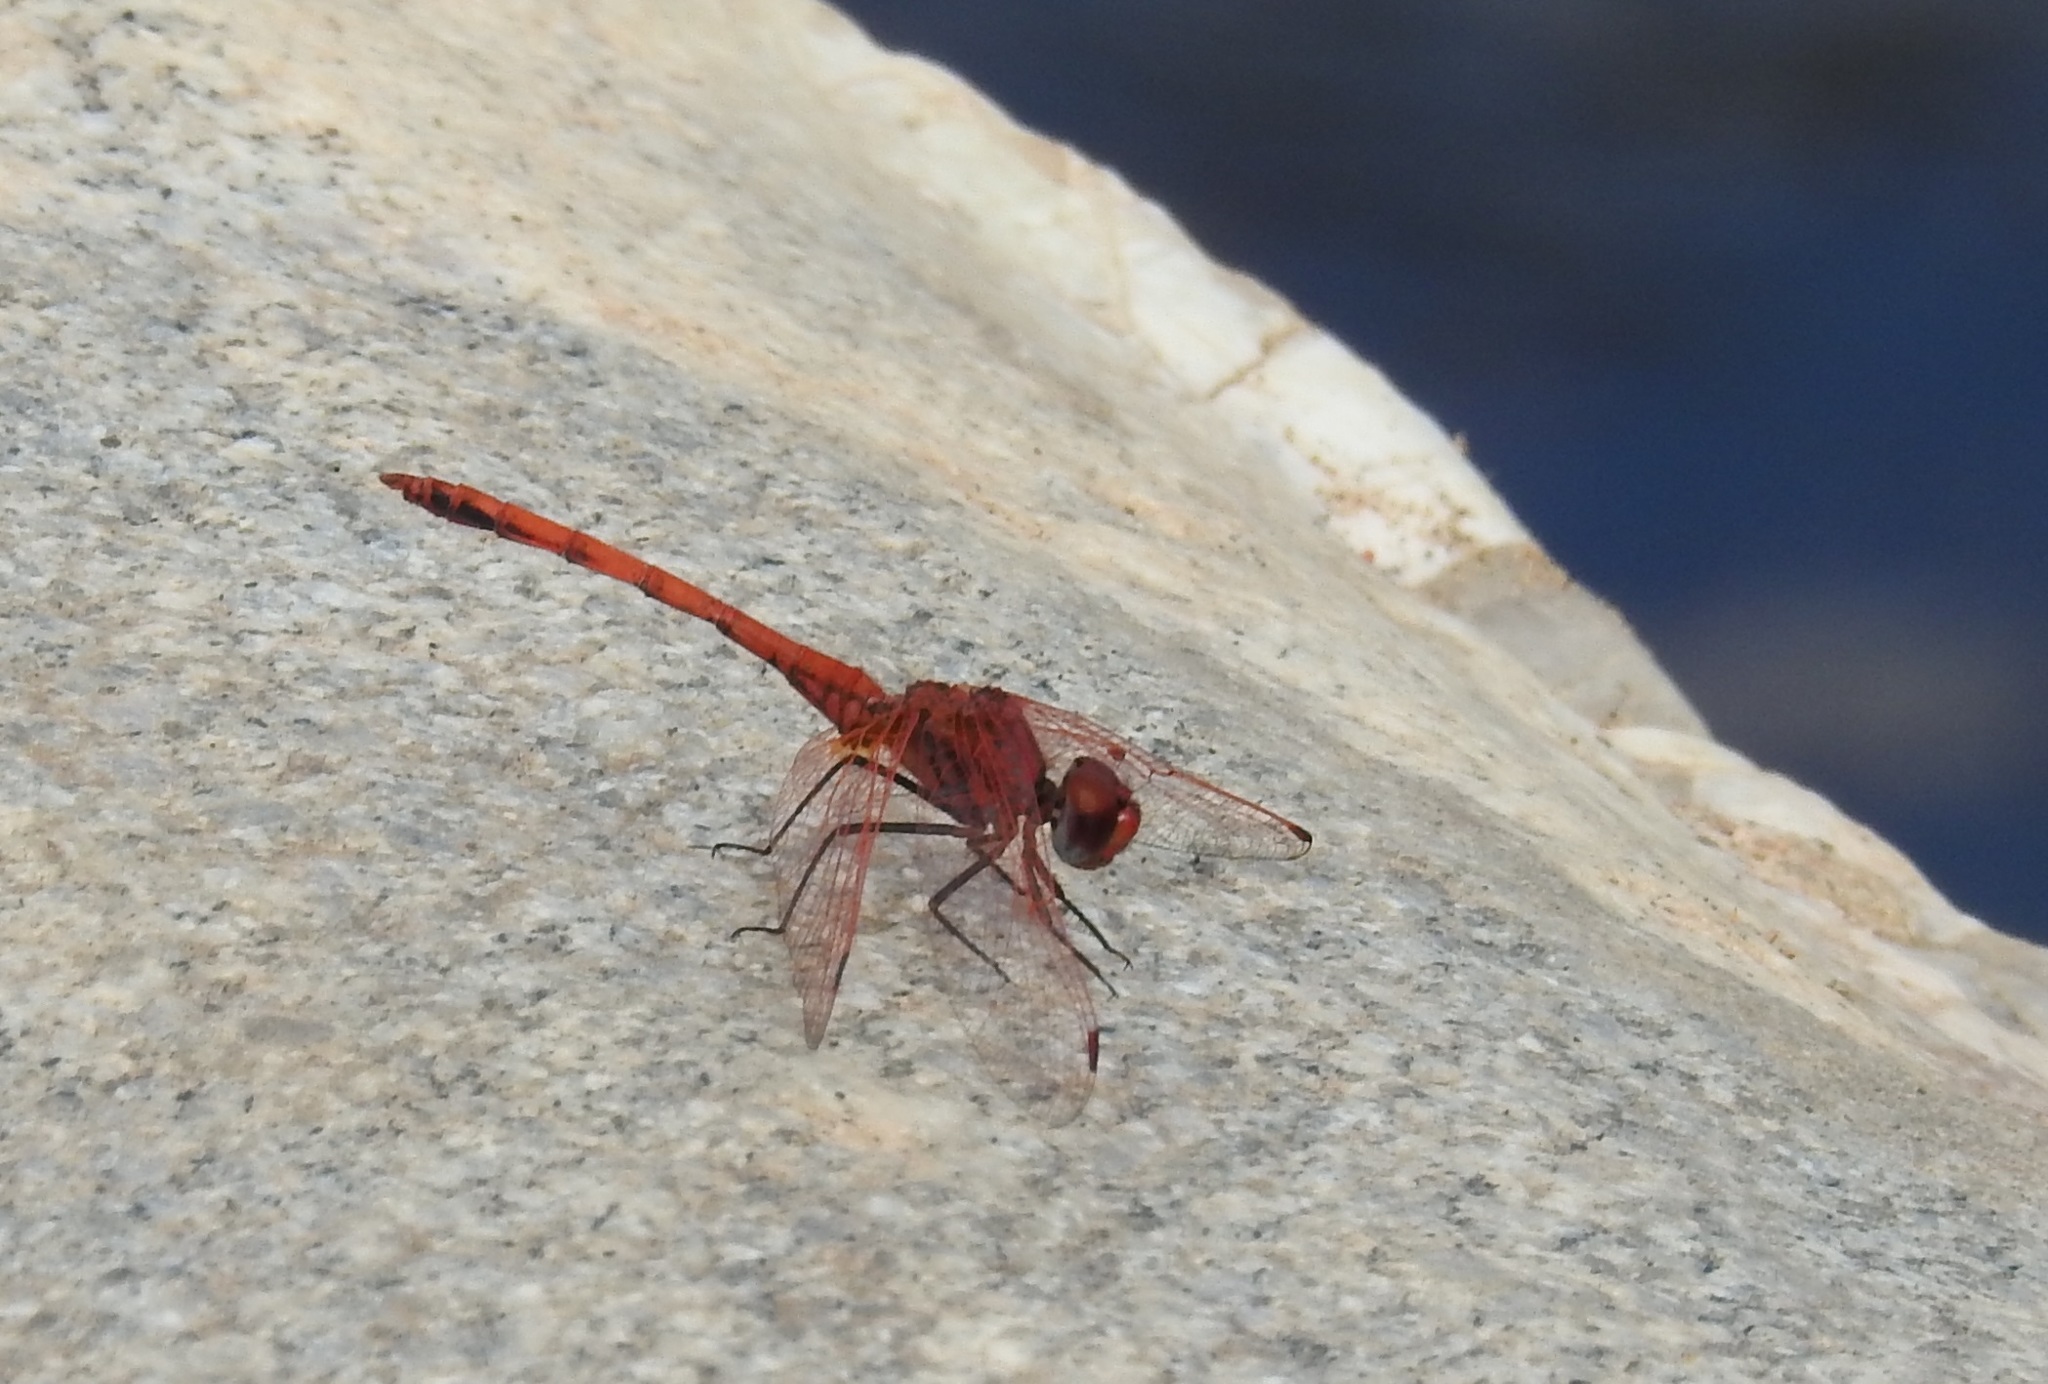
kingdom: Animalia
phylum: Arthropoda
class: Insecta
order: Odonata
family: Libellulidae
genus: Trithemis
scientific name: Trithemis arteriosa
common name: Red-veined dropwing
